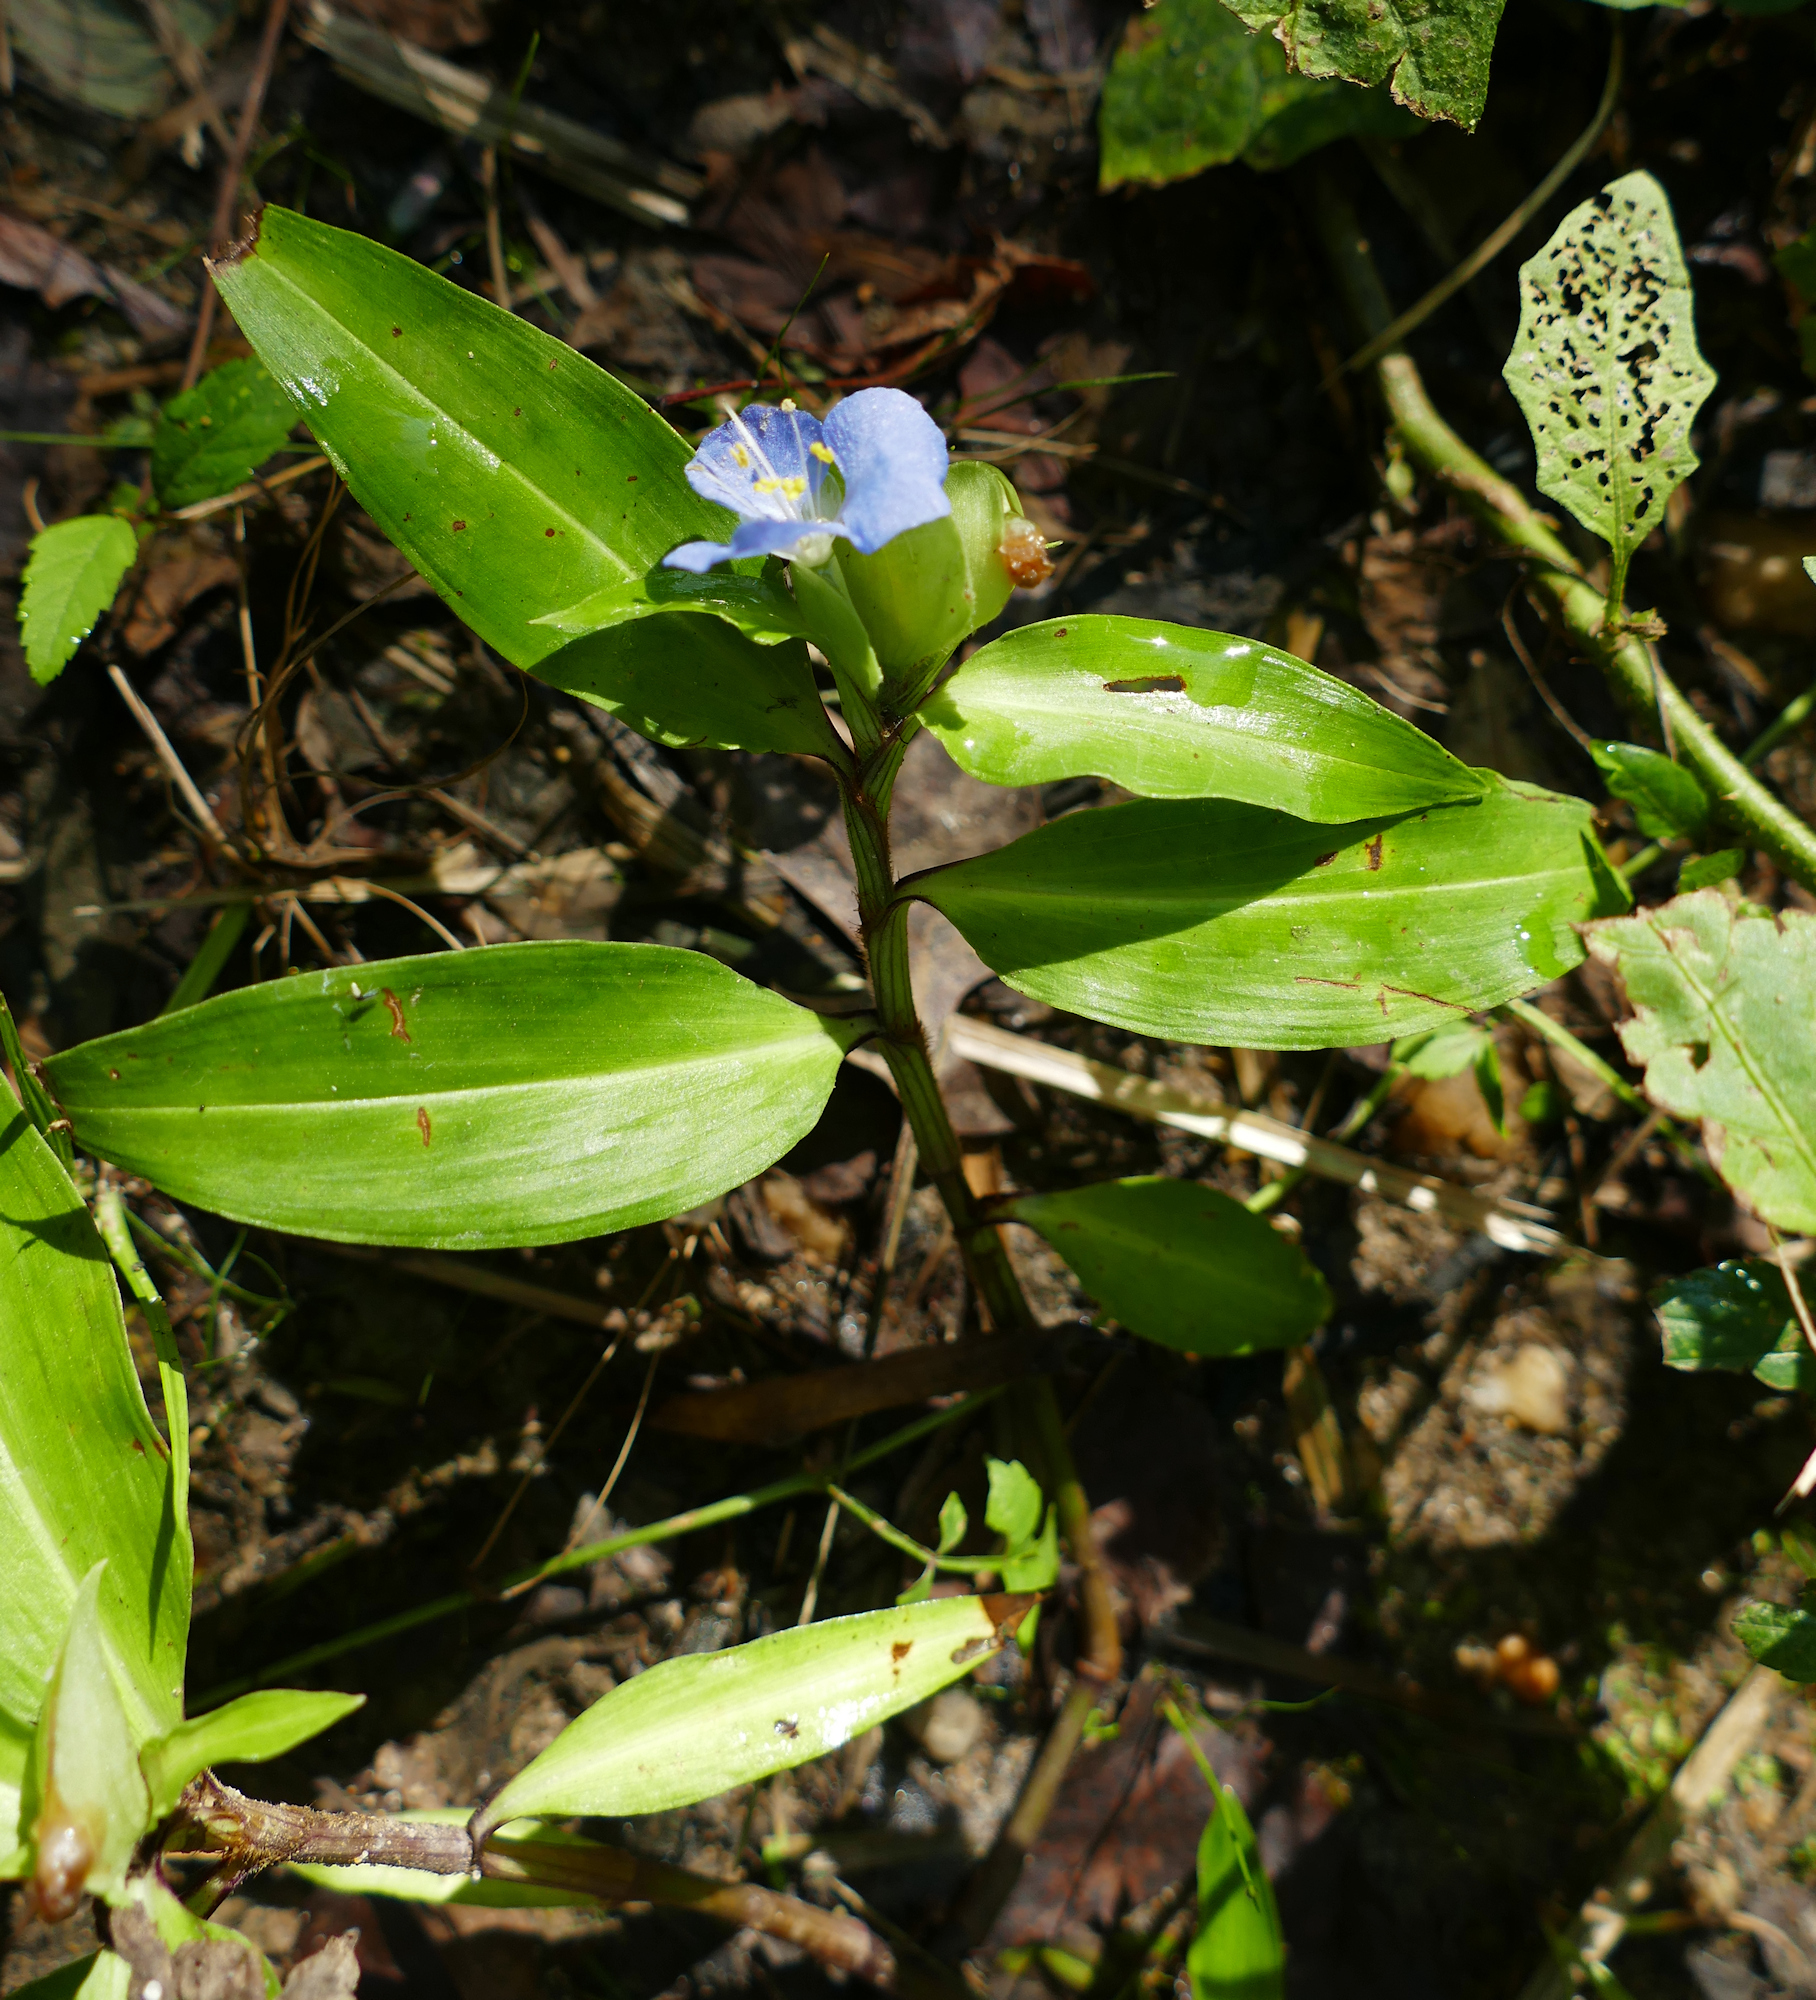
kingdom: Plantae
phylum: Tracheophyta
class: Liliopsida
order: Commelinales
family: Commelinaceae
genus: Commelina
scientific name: Commelina virginica
